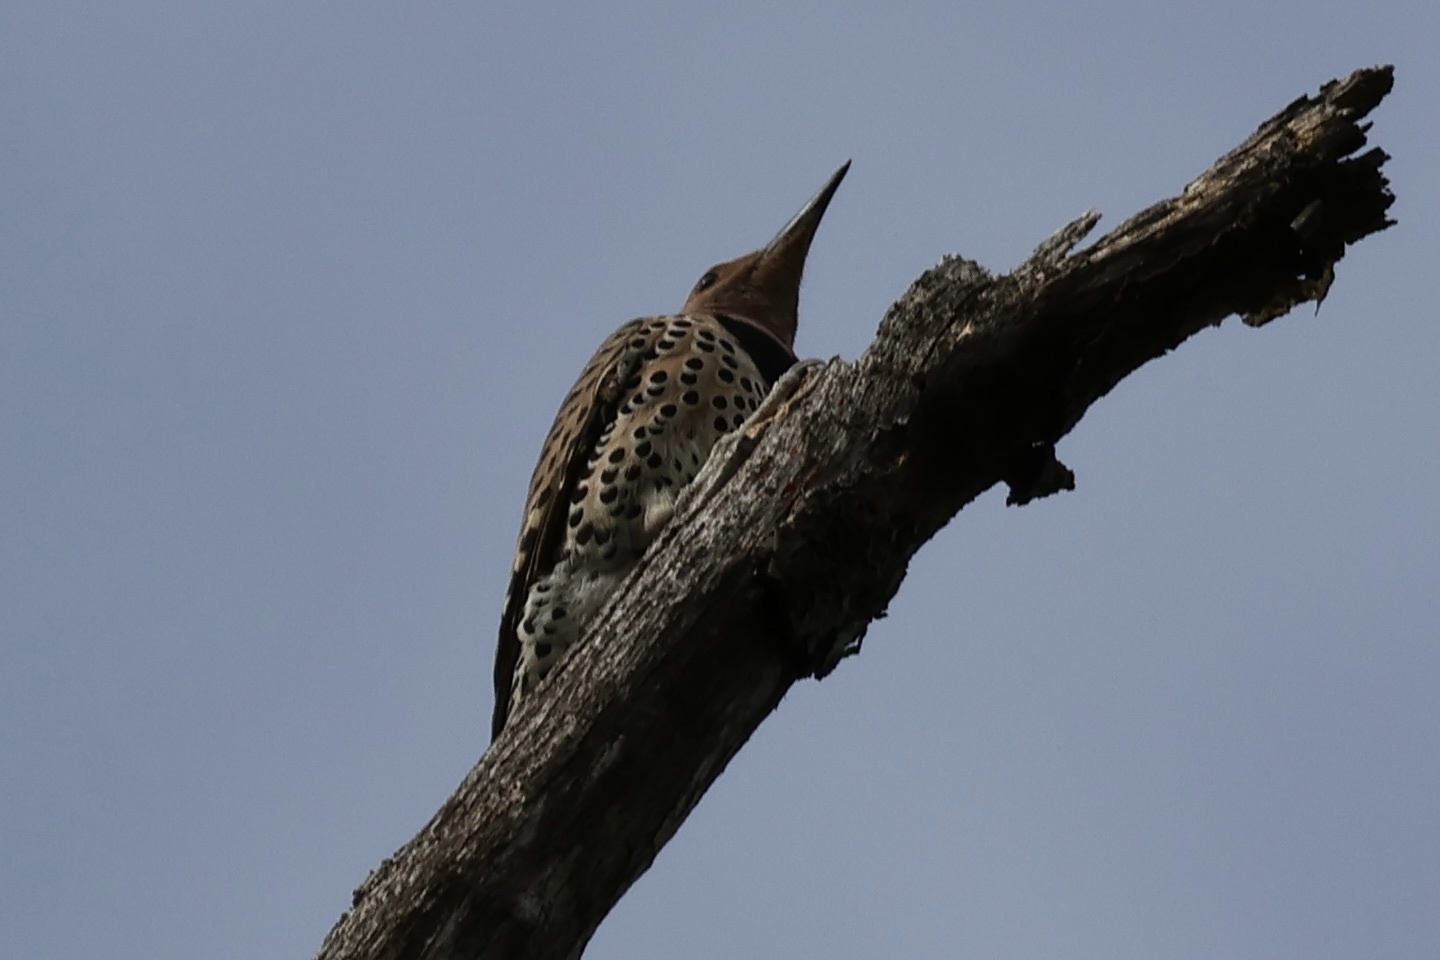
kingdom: Animalia
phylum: Chordata
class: Aves
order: Piciformes
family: Picidae
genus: Colaptes
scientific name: Colaptes auratus
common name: Northern flicker
